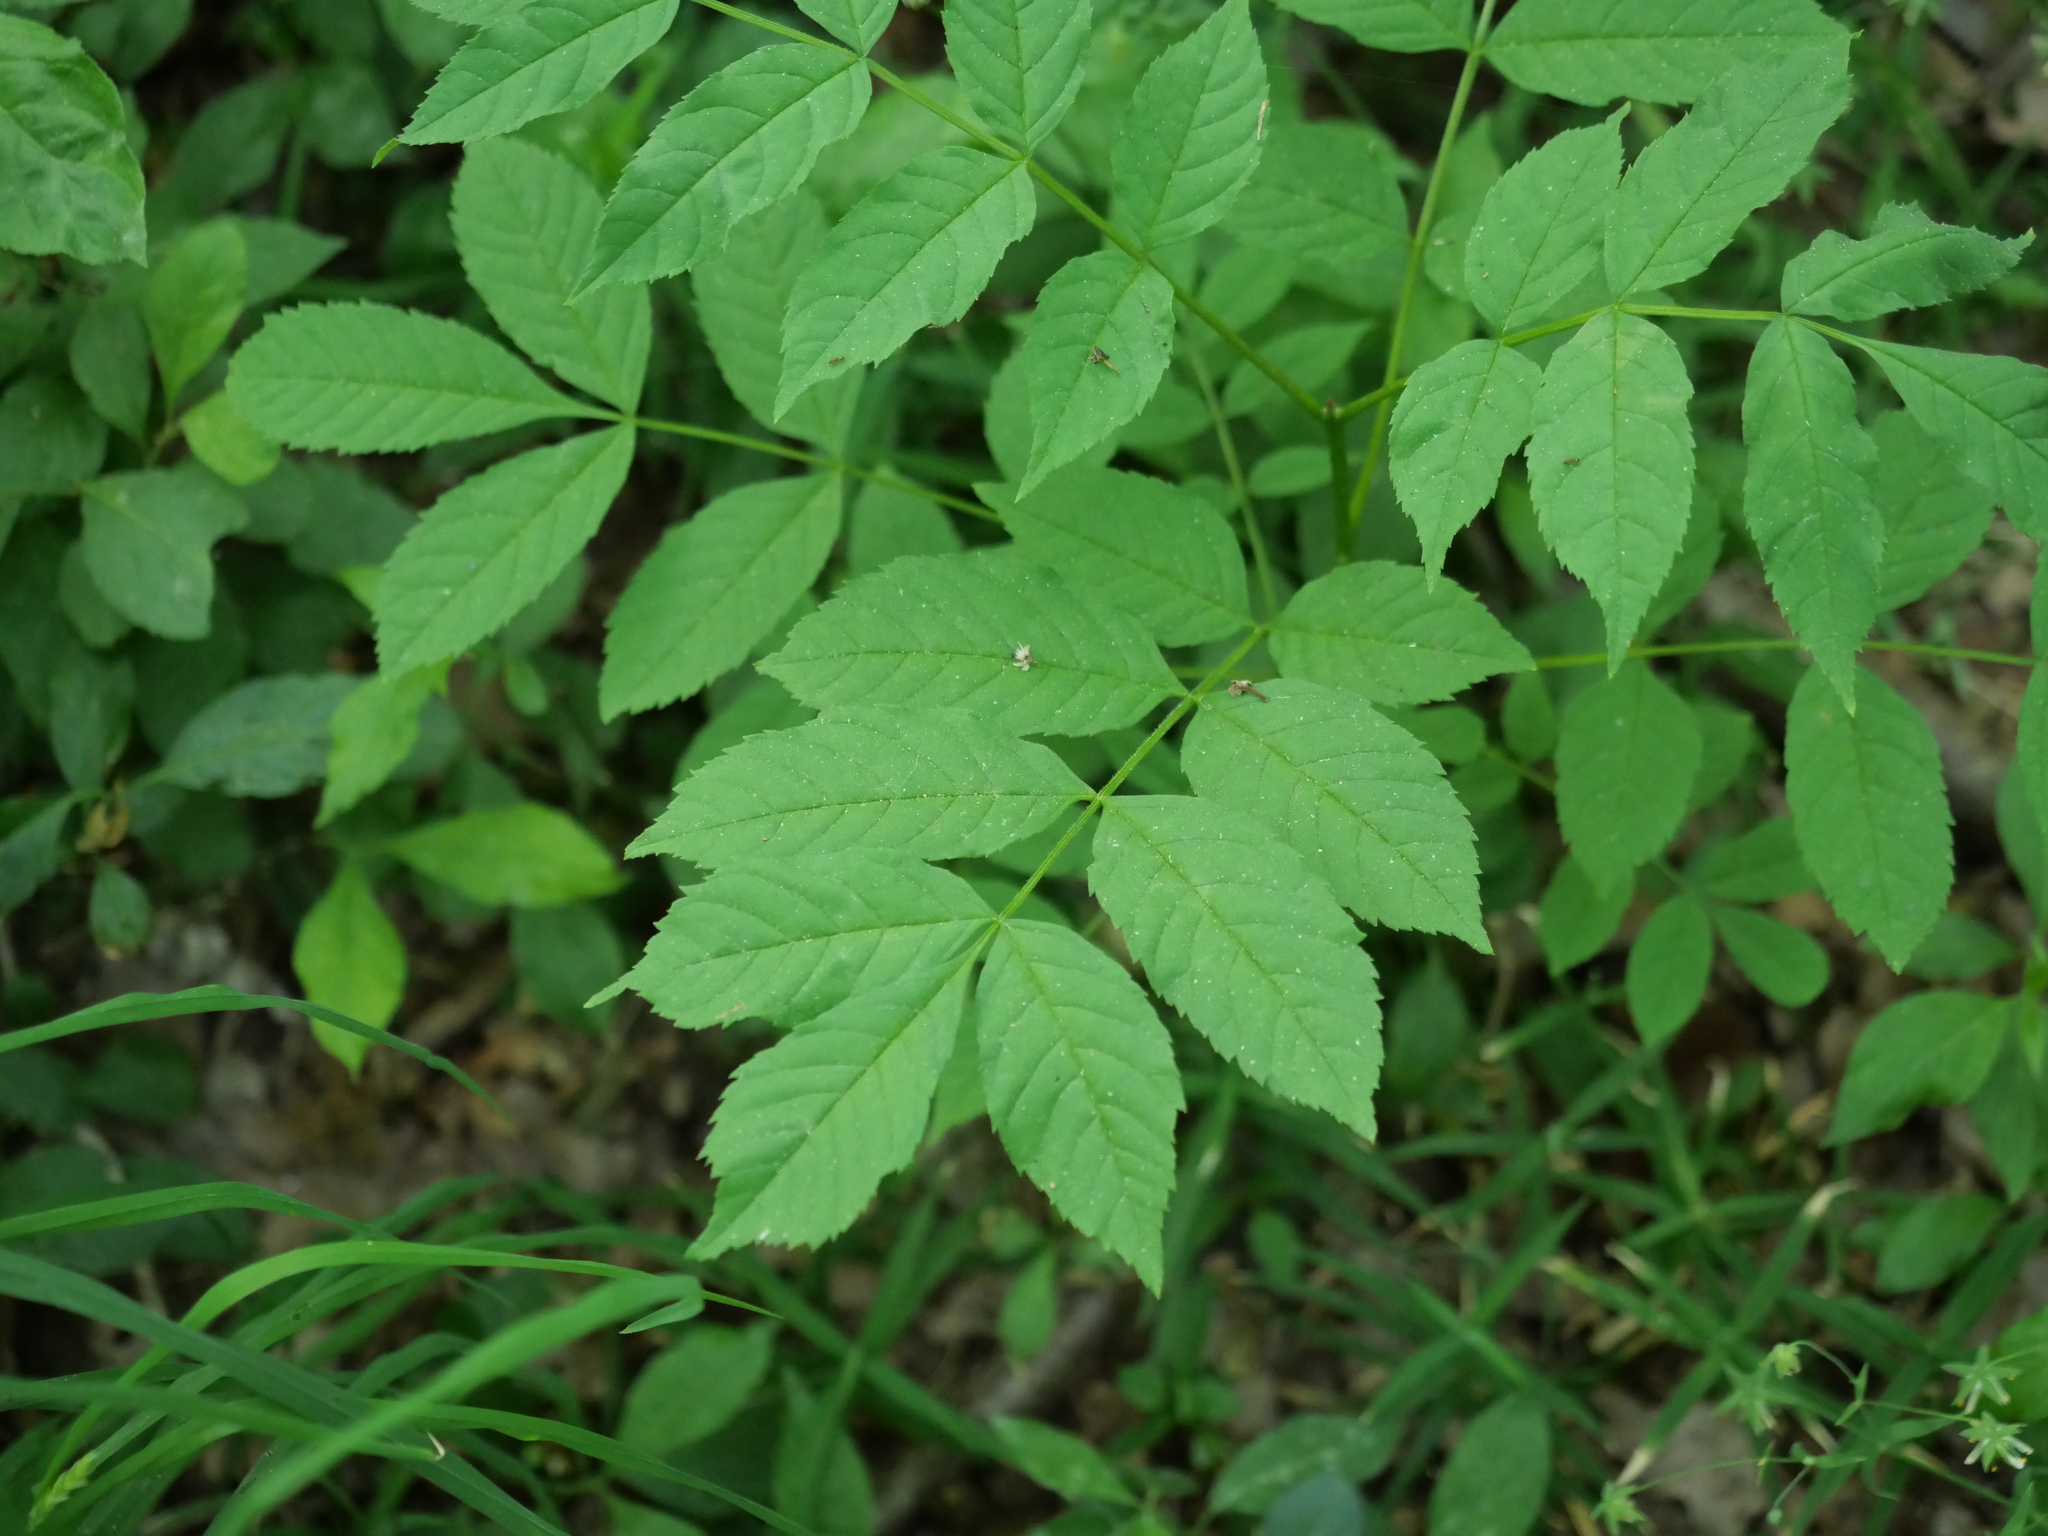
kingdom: Plantae
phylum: Tracheophyta
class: Magnoliopsida
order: Lamiales
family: Oleaceae
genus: Fraxinus
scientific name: Fraxinus excelsior
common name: European ash
